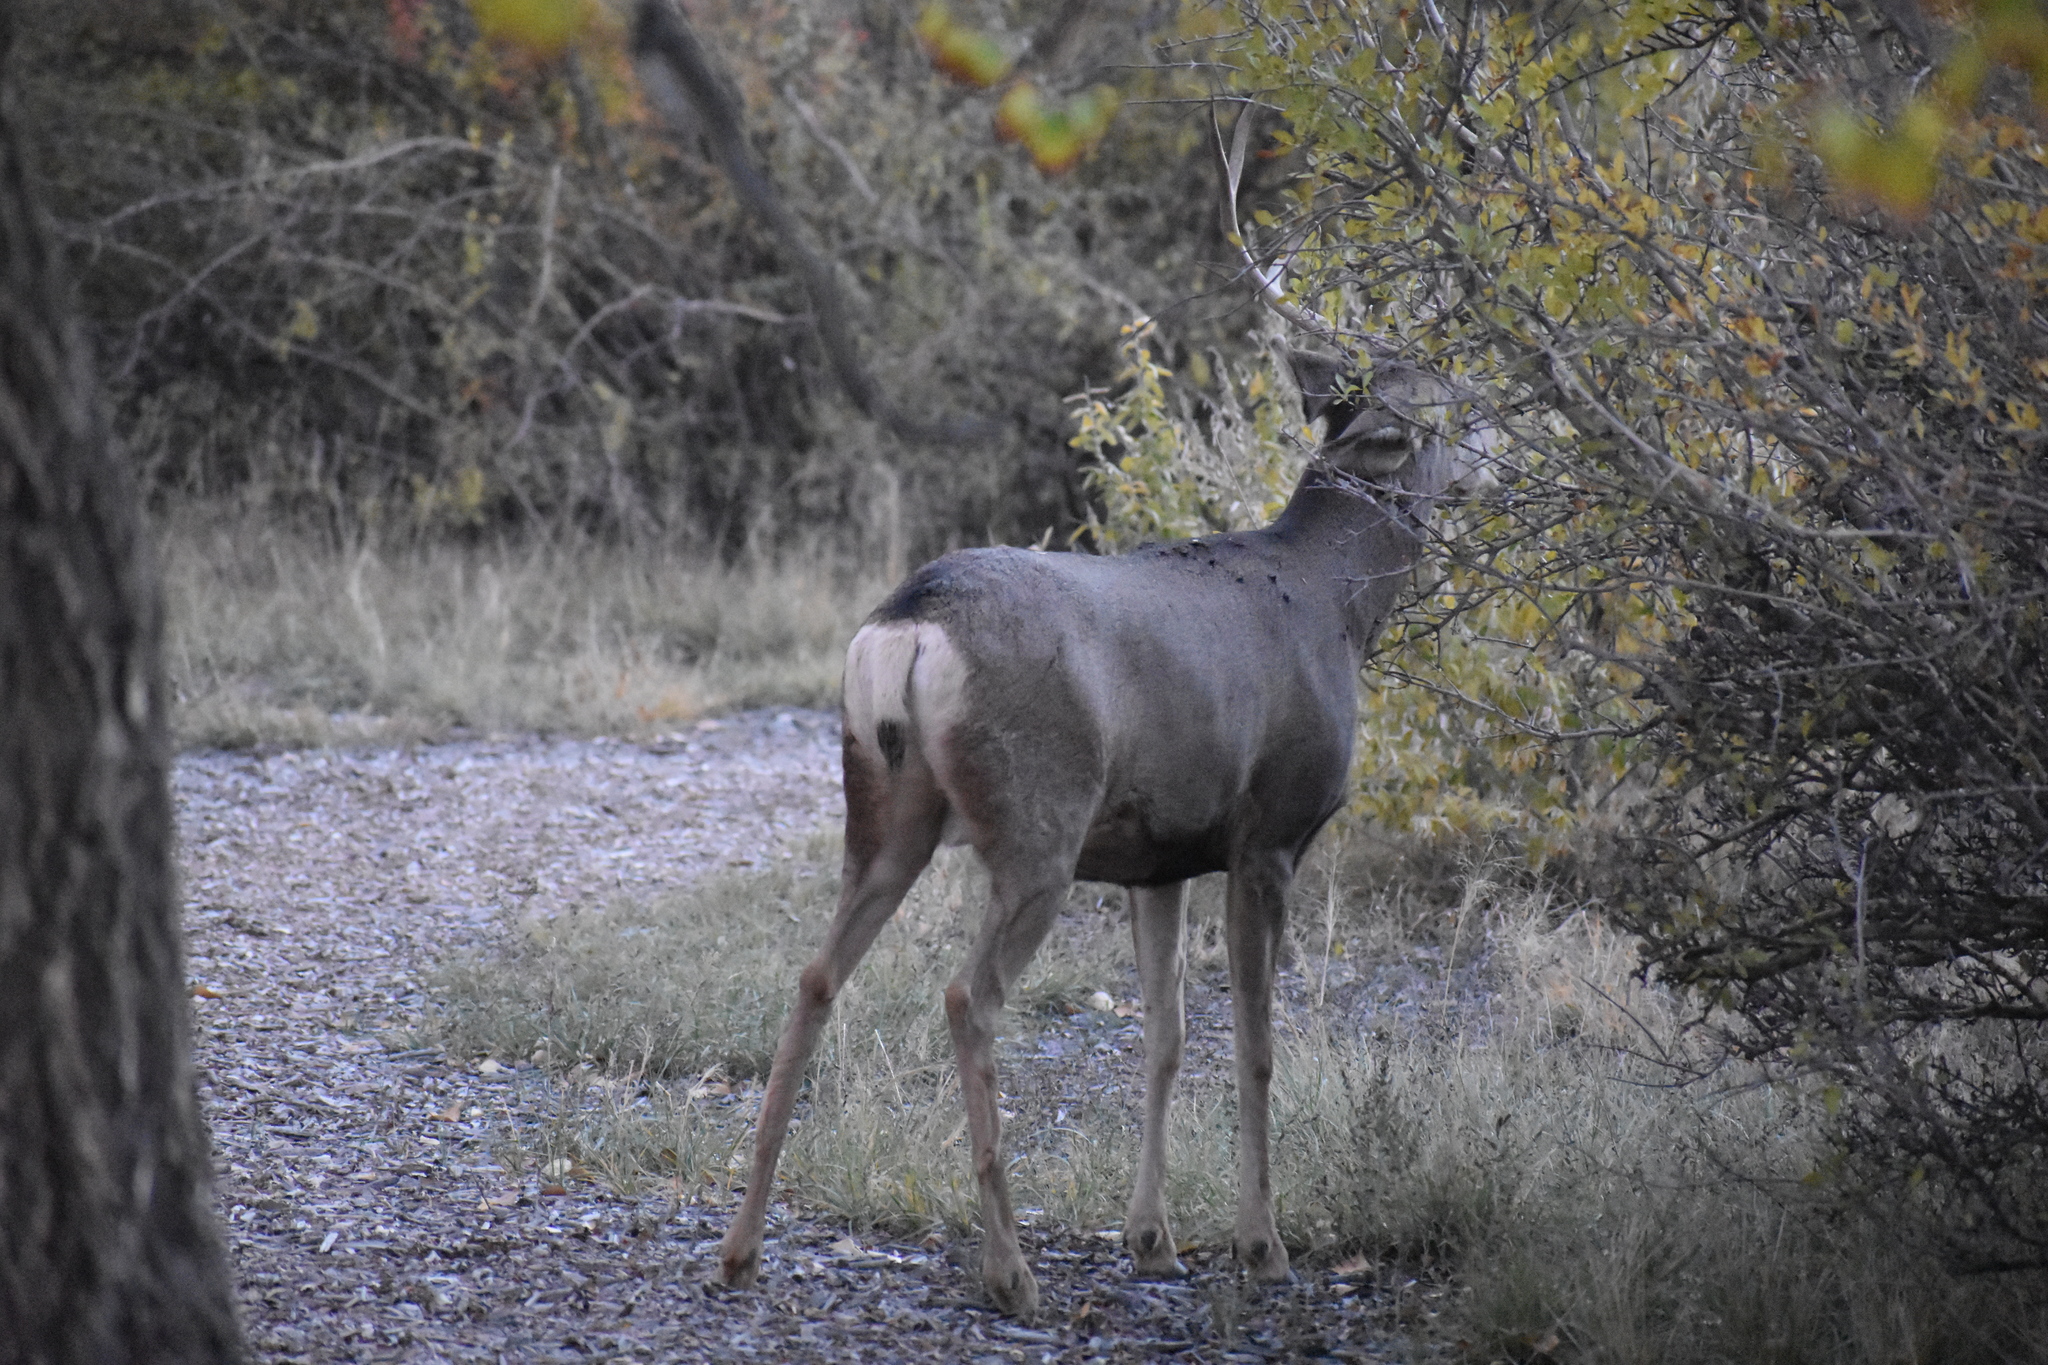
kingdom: Animalia
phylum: Chordata
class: Mammalia
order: Artiodactyla
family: Cervidae
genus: Odocoileus
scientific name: Odocoileus hemionus
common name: Mule deer
